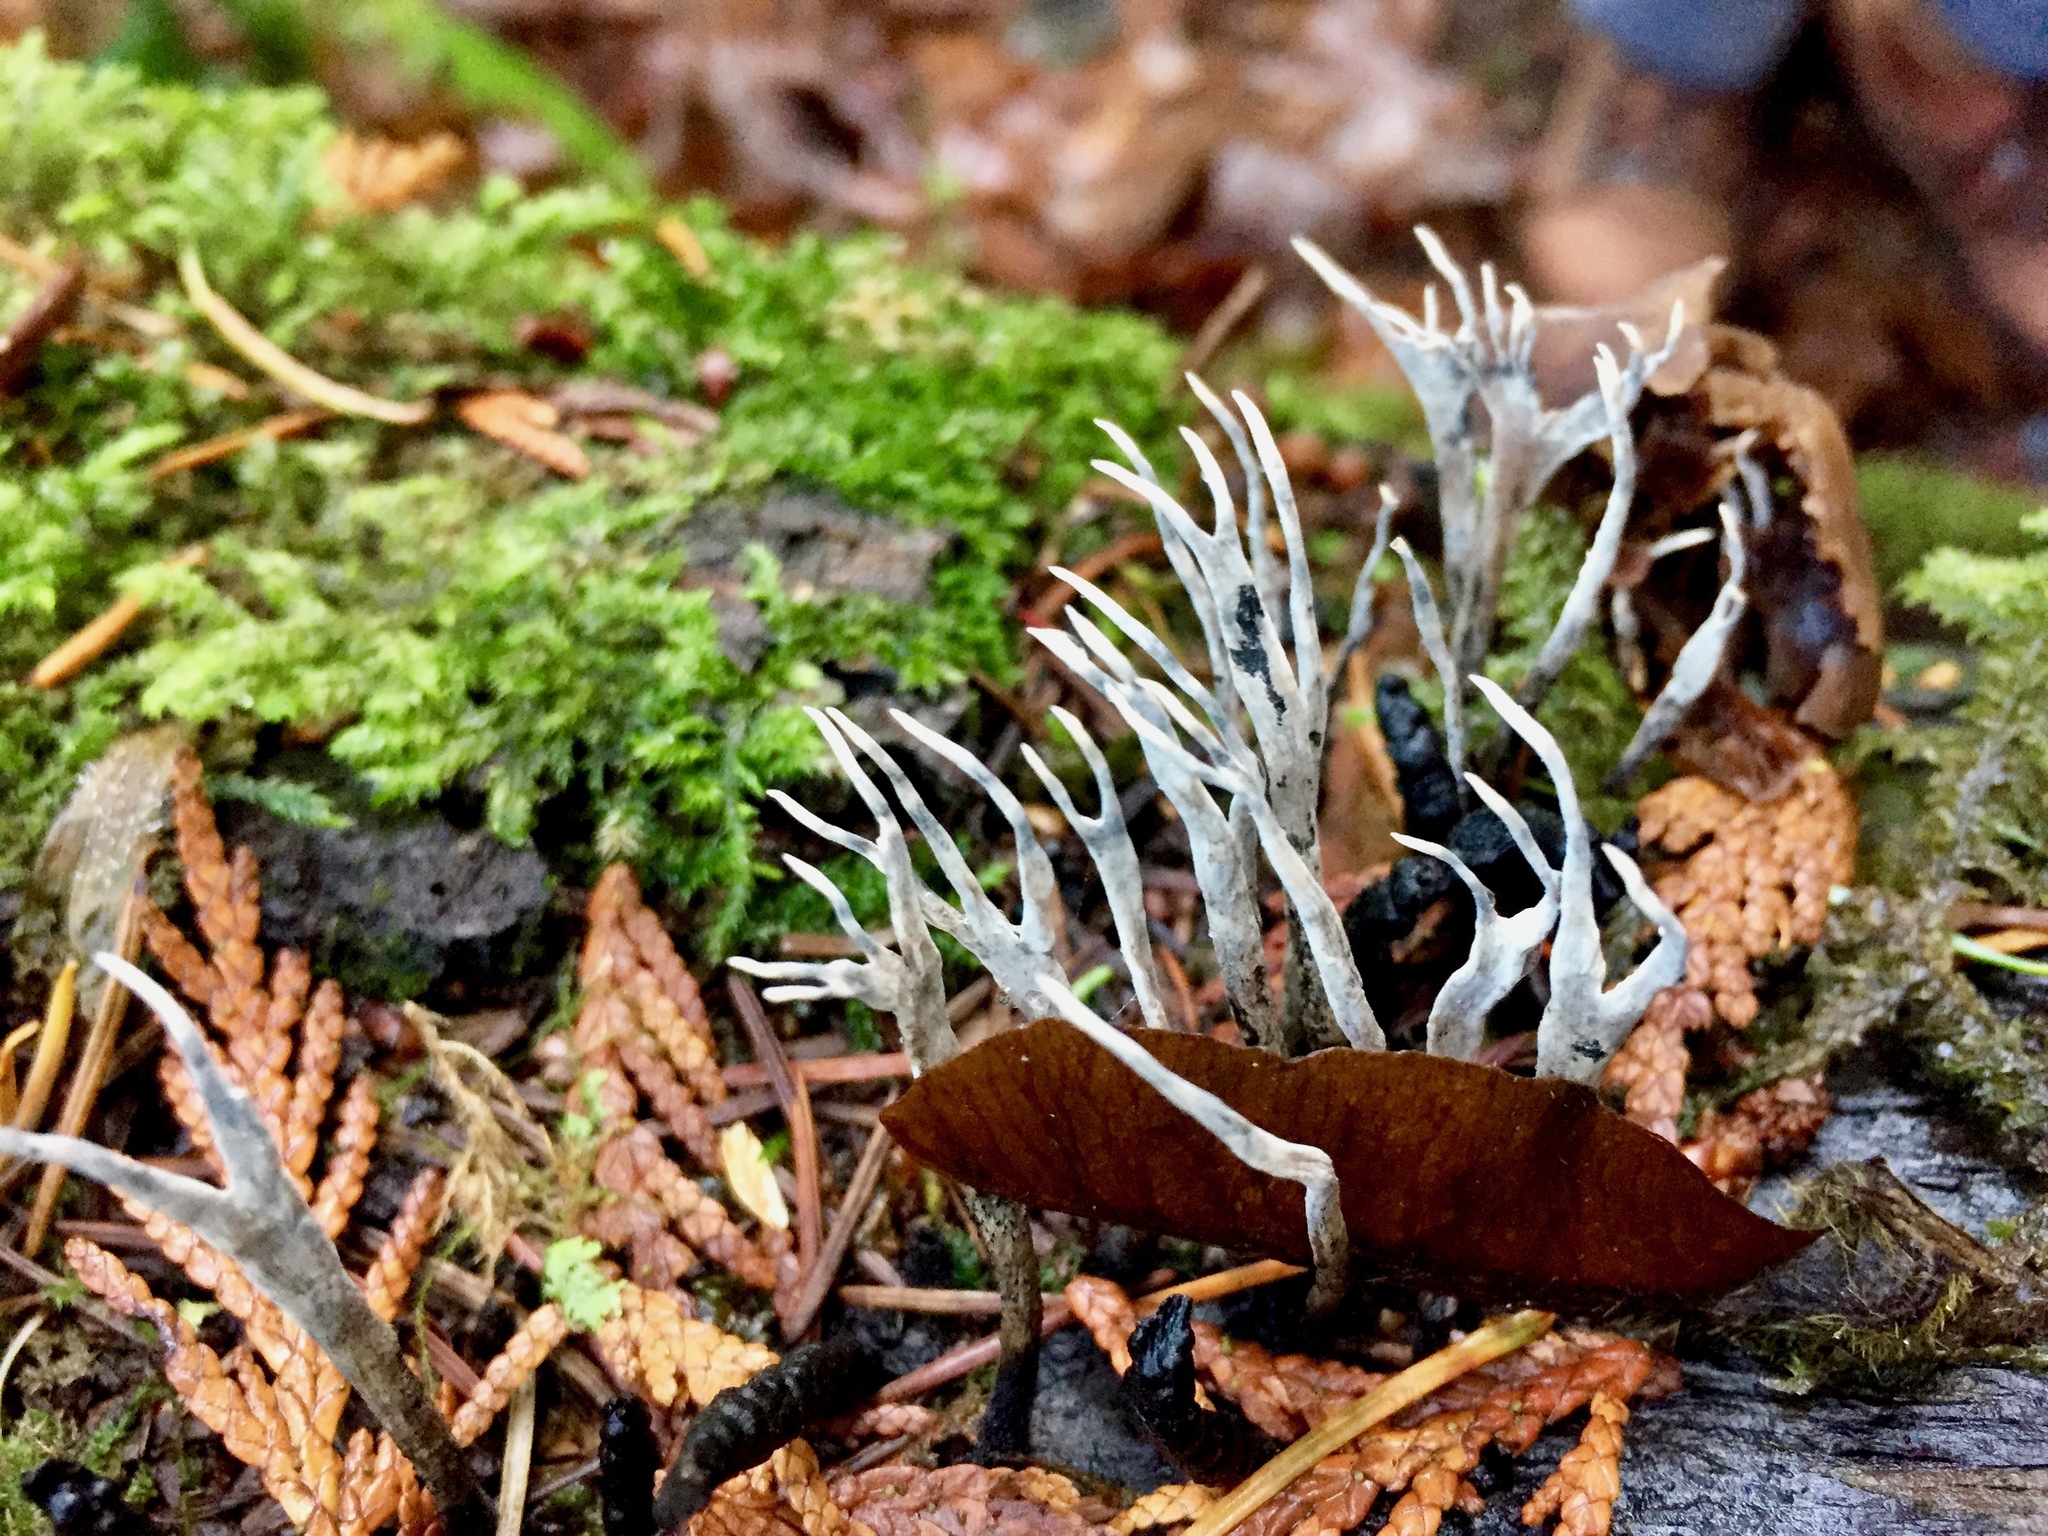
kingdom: Fungi
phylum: Ascomycota
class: Sordariomycetes
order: Xylariales
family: Xylariaceae
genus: Xylaria
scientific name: Xylaria hypoxylon
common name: Candle-snuff fungus
